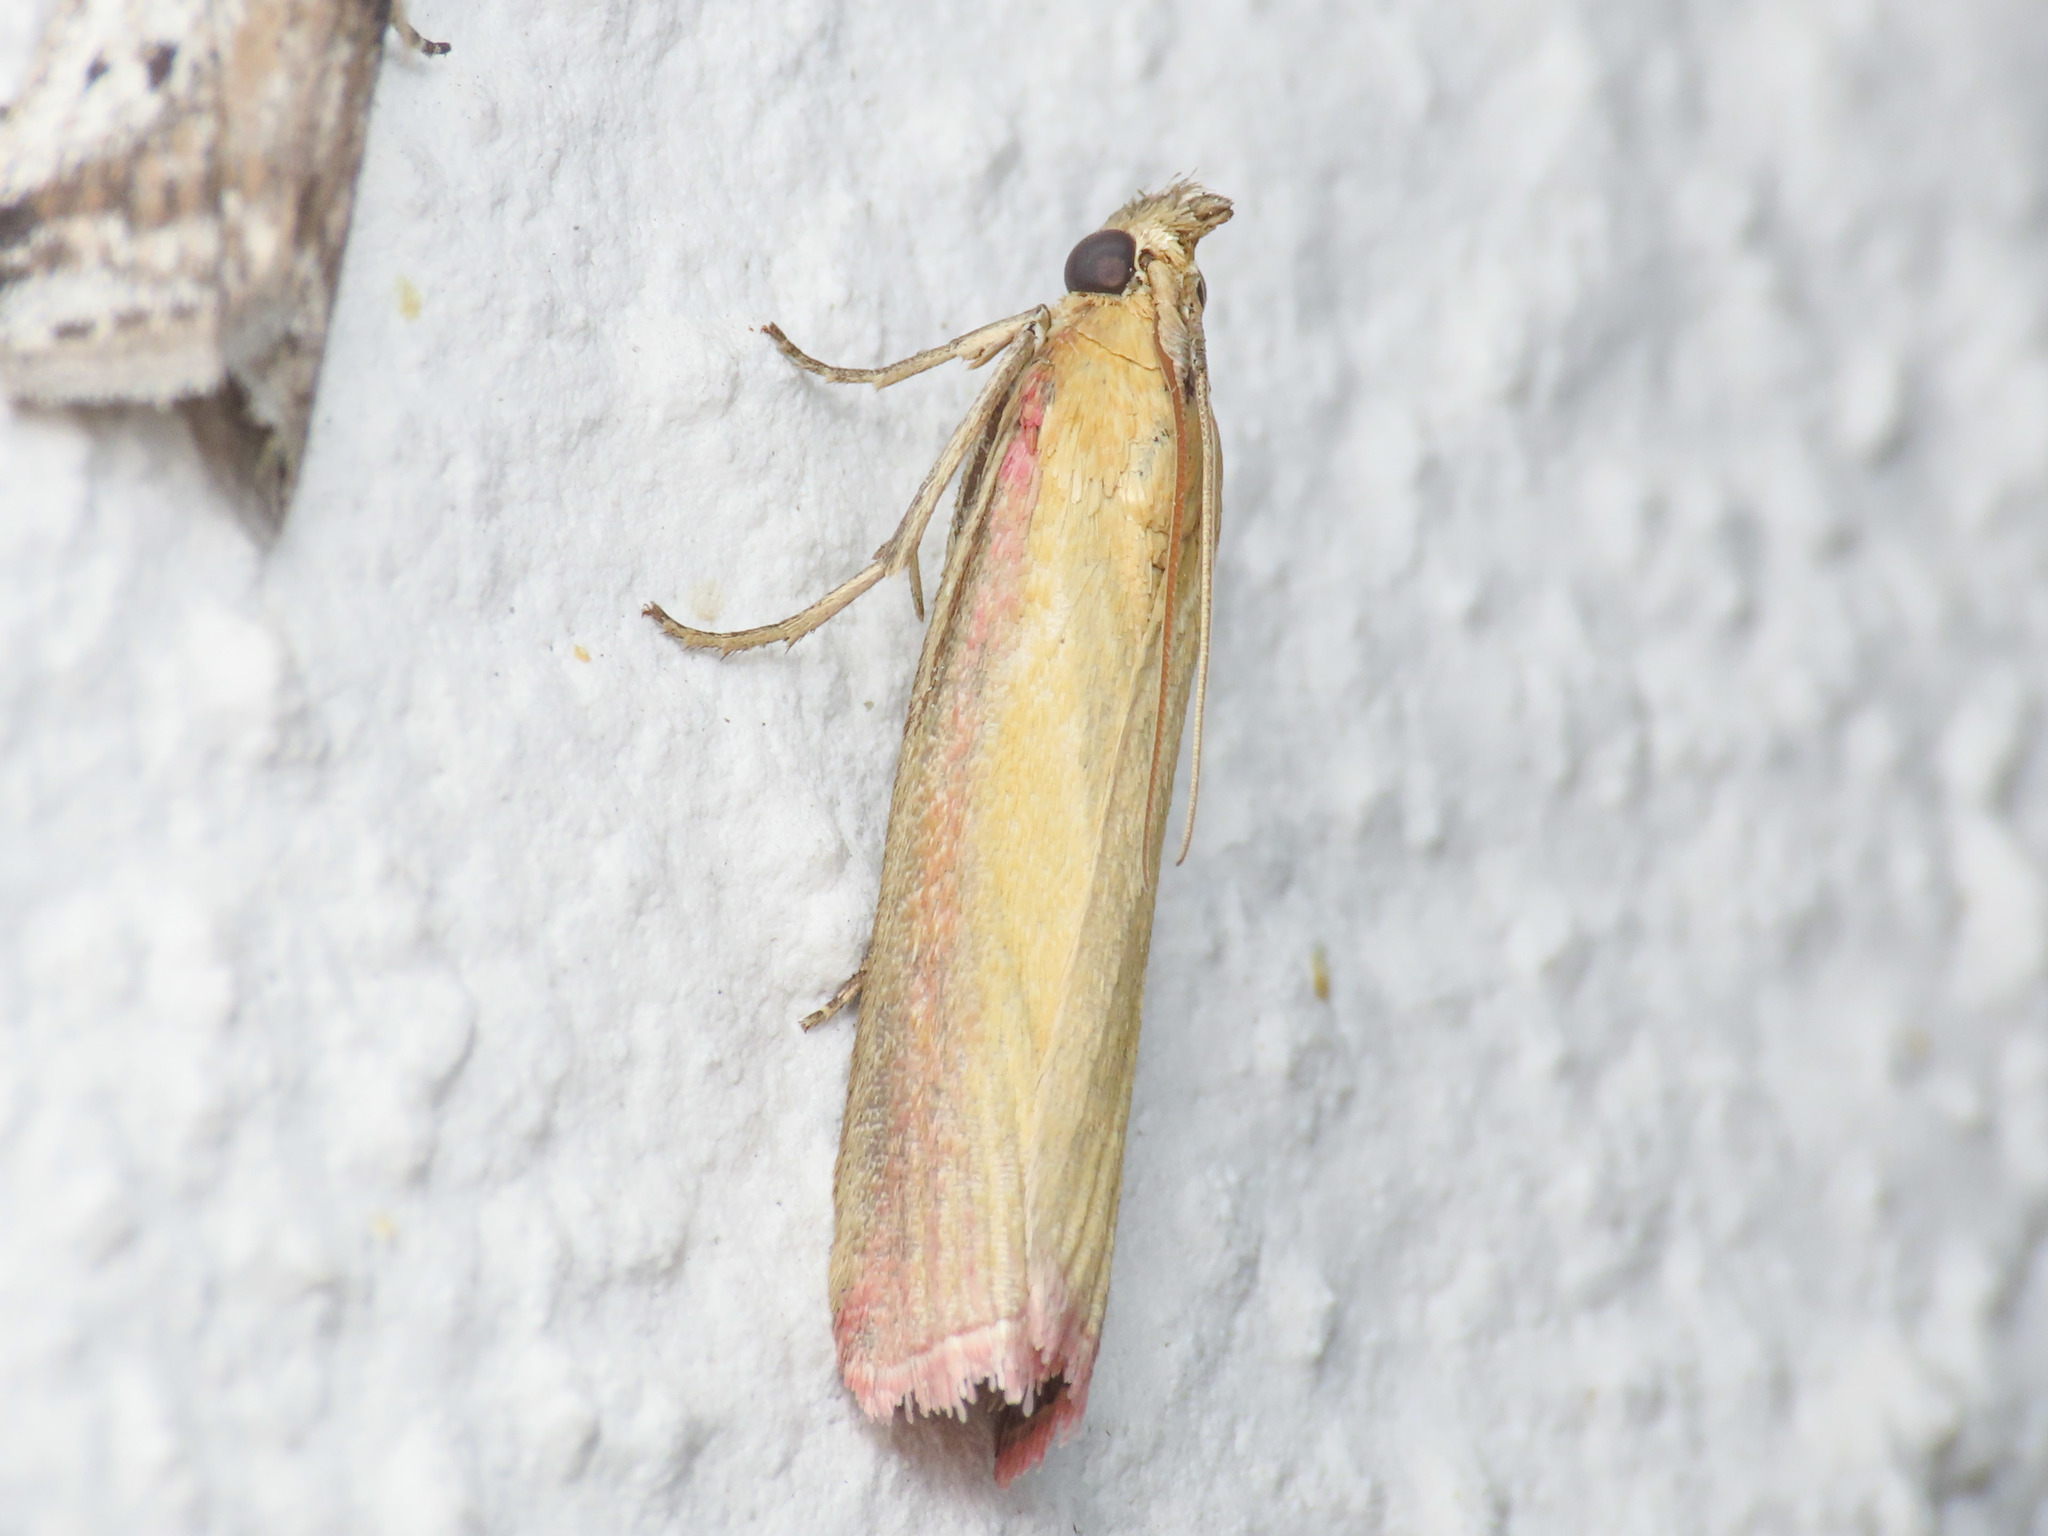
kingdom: Animalia
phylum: Arthropoda
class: Insecta
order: Lepidoptera
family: Pyralidae
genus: Oncocera
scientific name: Oncocera semirubella
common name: Rosy-striped knot-horn
